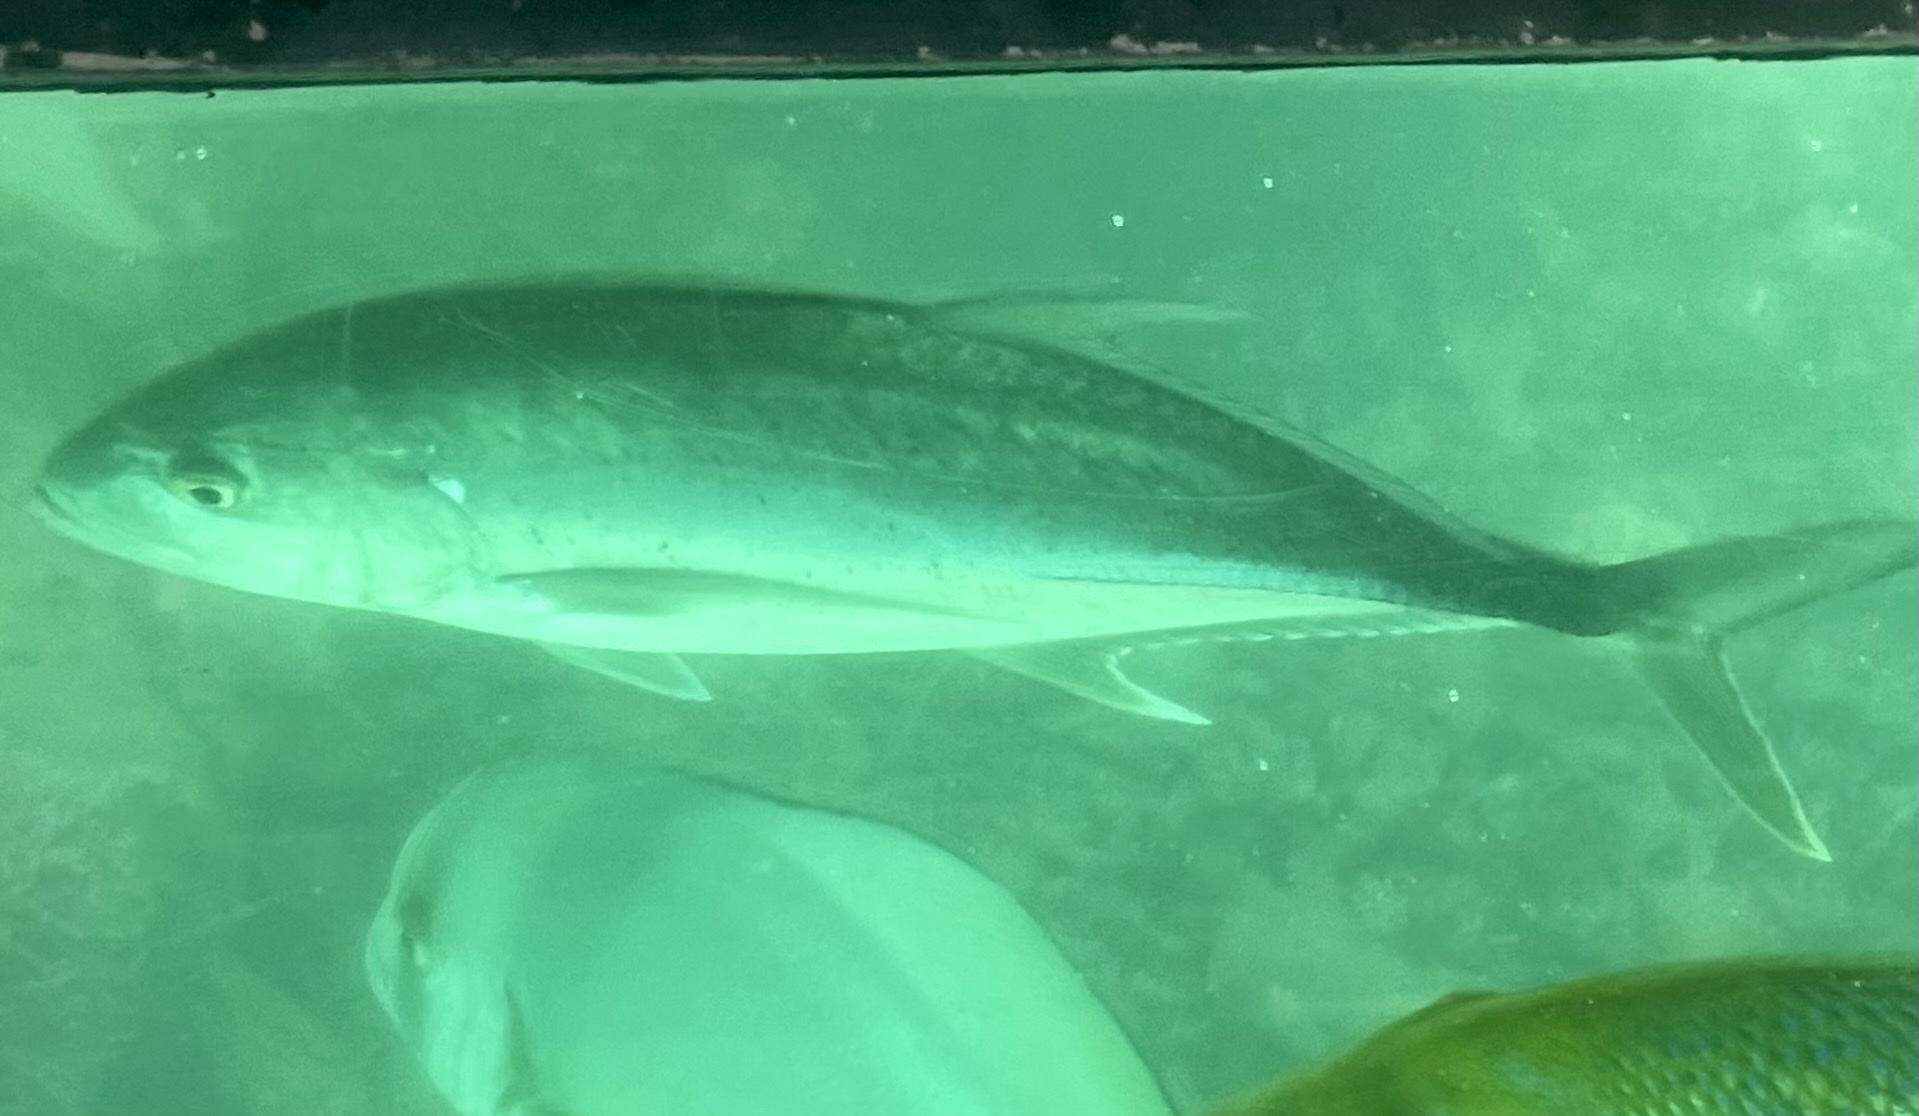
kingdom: Animalia
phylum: Chordata
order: Perciformes
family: Carangidae
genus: Caranx
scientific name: Caranx papuensis
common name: Brassy trevally
